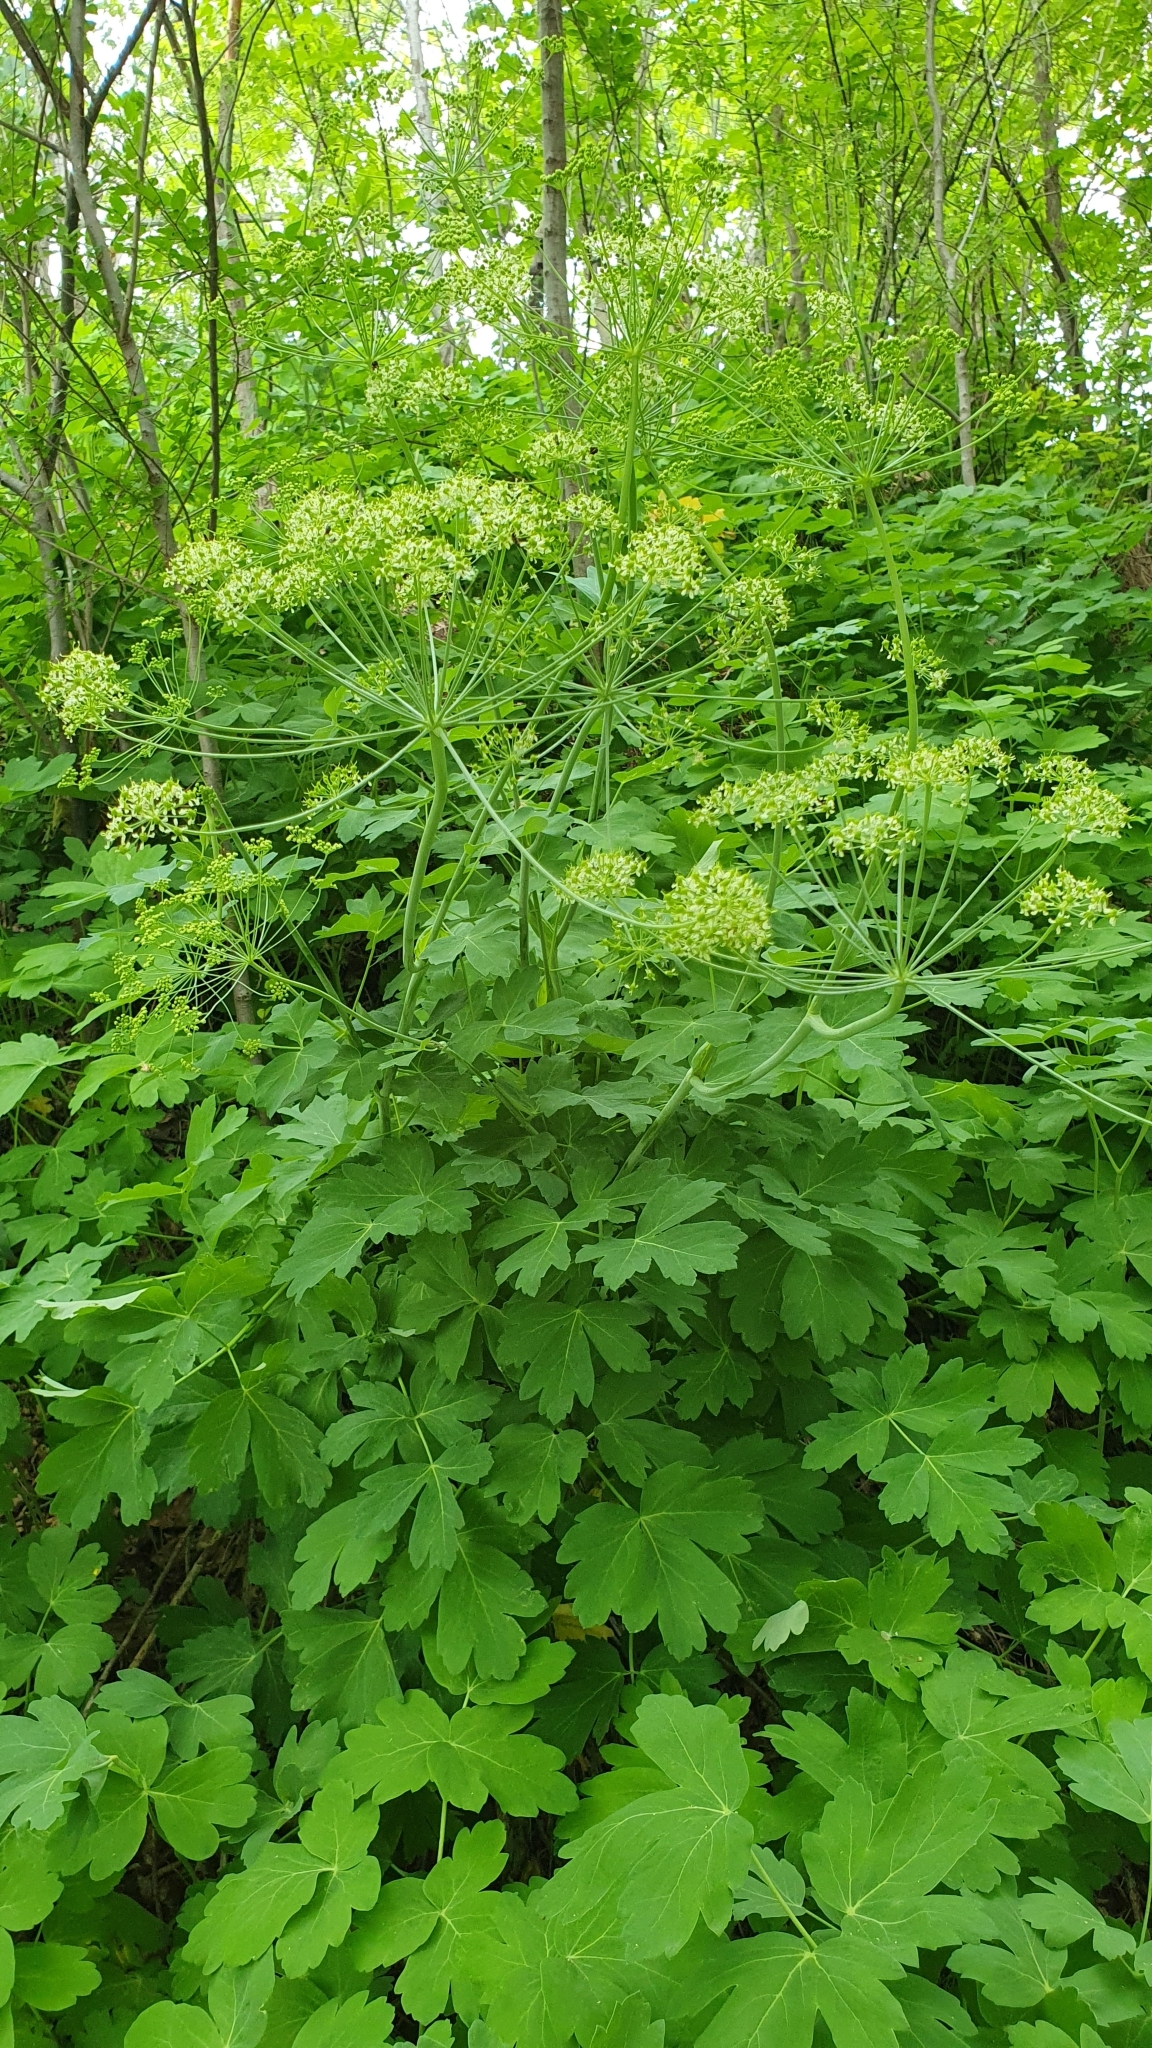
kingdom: Plantae
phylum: Tracheophyta
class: Magnoliopsida
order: Apiales
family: Apiaceae
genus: Laser
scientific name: Laser trilobum
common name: Laser
